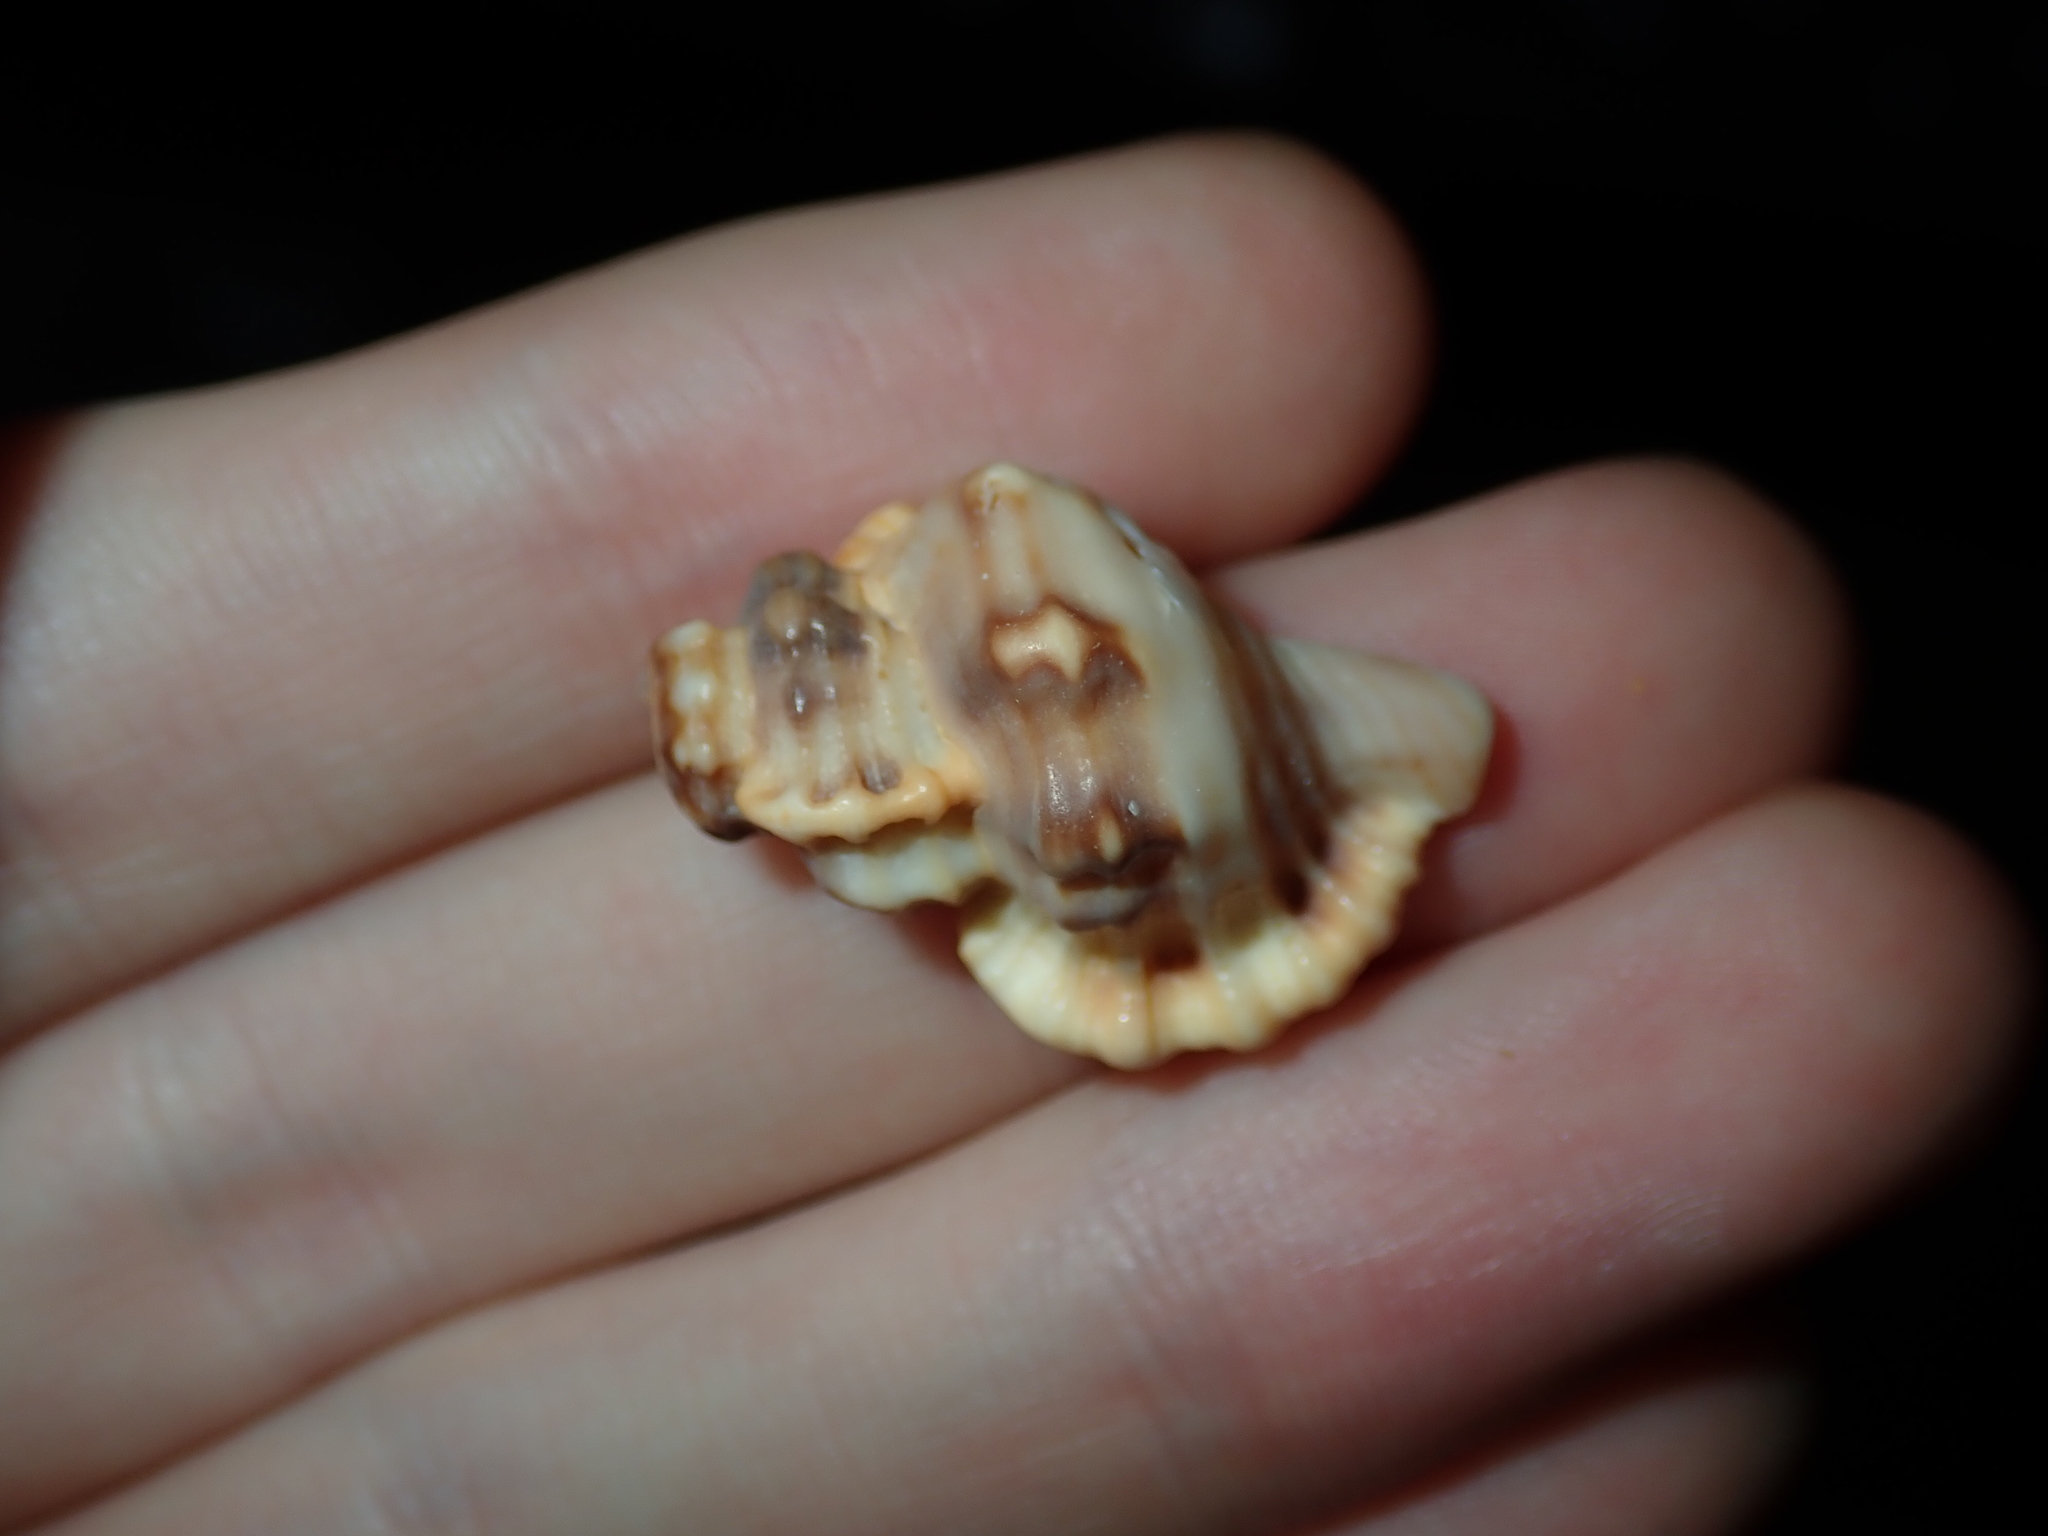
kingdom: Animalia
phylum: Mollusca
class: Gastropoda
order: Littorinimorpha
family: Cymatiidae
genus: Monoplex
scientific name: Monoplex exaratus
